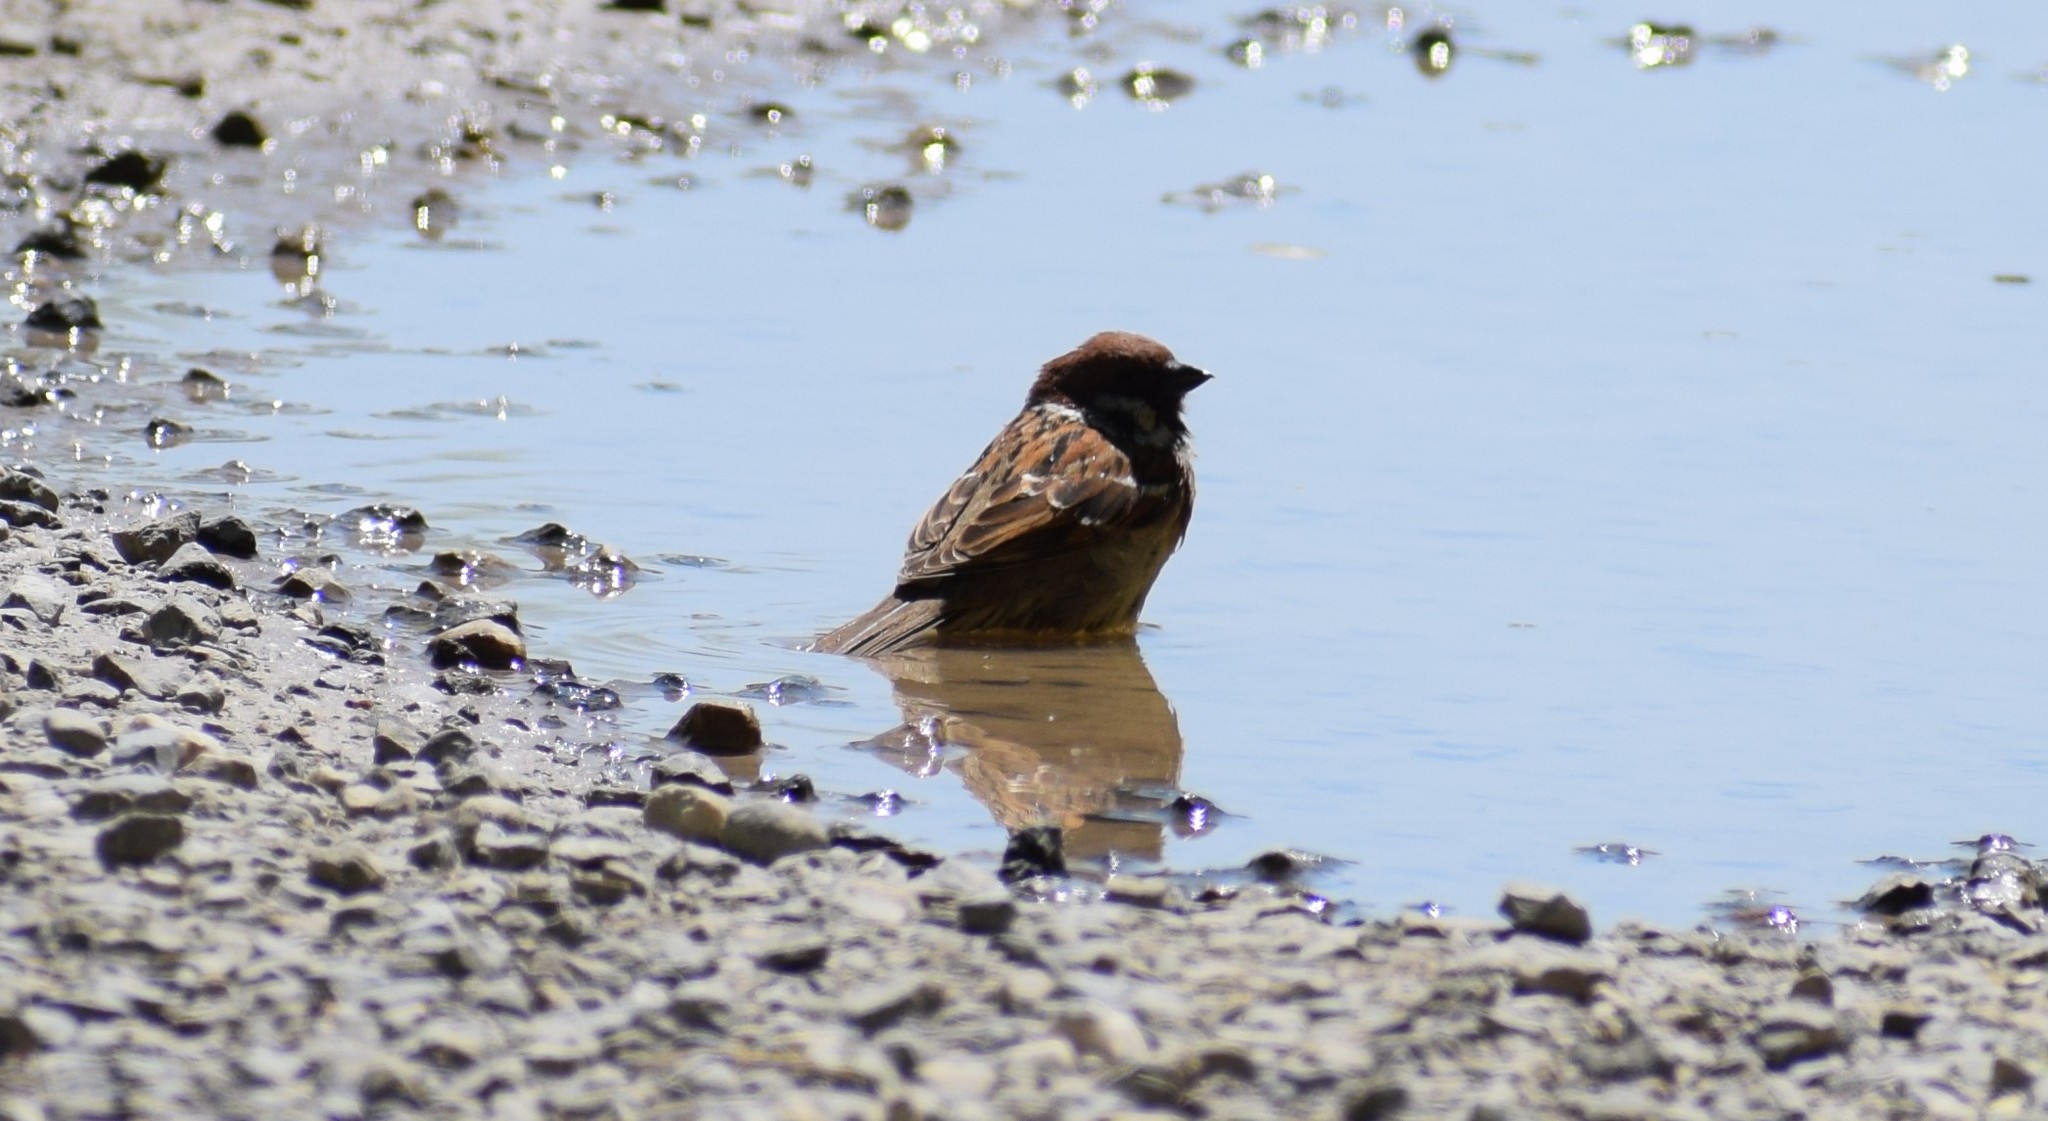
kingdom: Animalia
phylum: Chordata
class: Aves
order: Passeriformes
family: Passeridae
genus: Passer
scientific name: Passer montanus
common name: Eurasian tree sparrow
